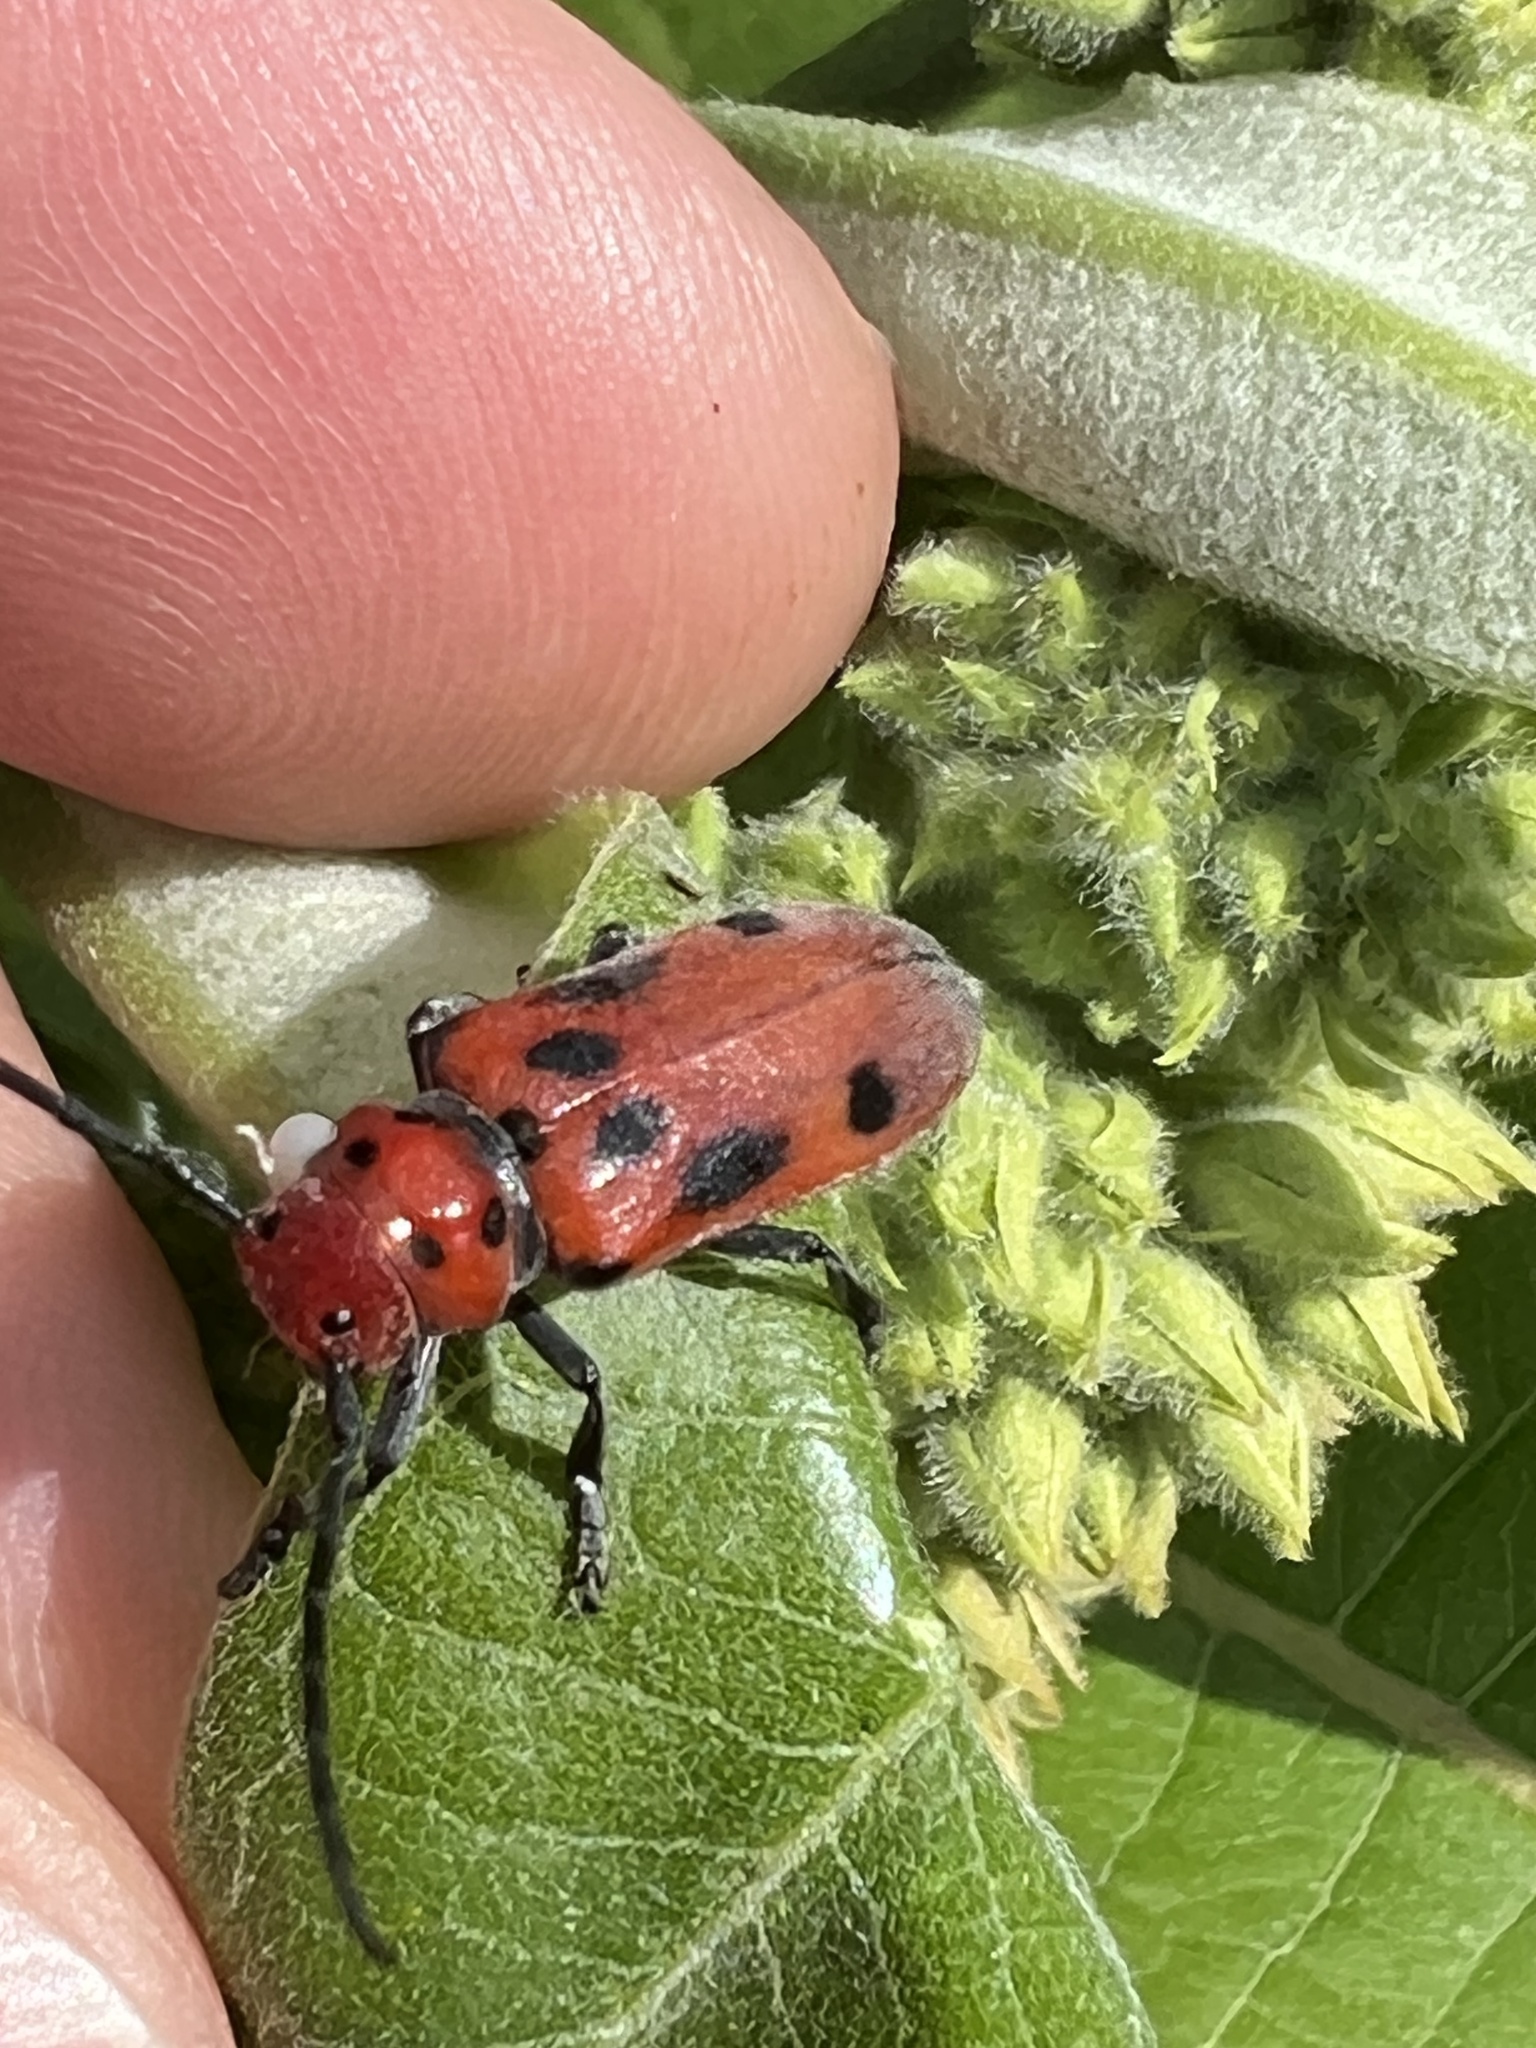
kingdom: Animalia
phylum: Arthropoda
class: Insecta
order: Coleoptera
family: Cerambycidae
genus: Tetraopes
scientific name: Tetraopes tetrophthalmus
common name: Red milkweed beetle
